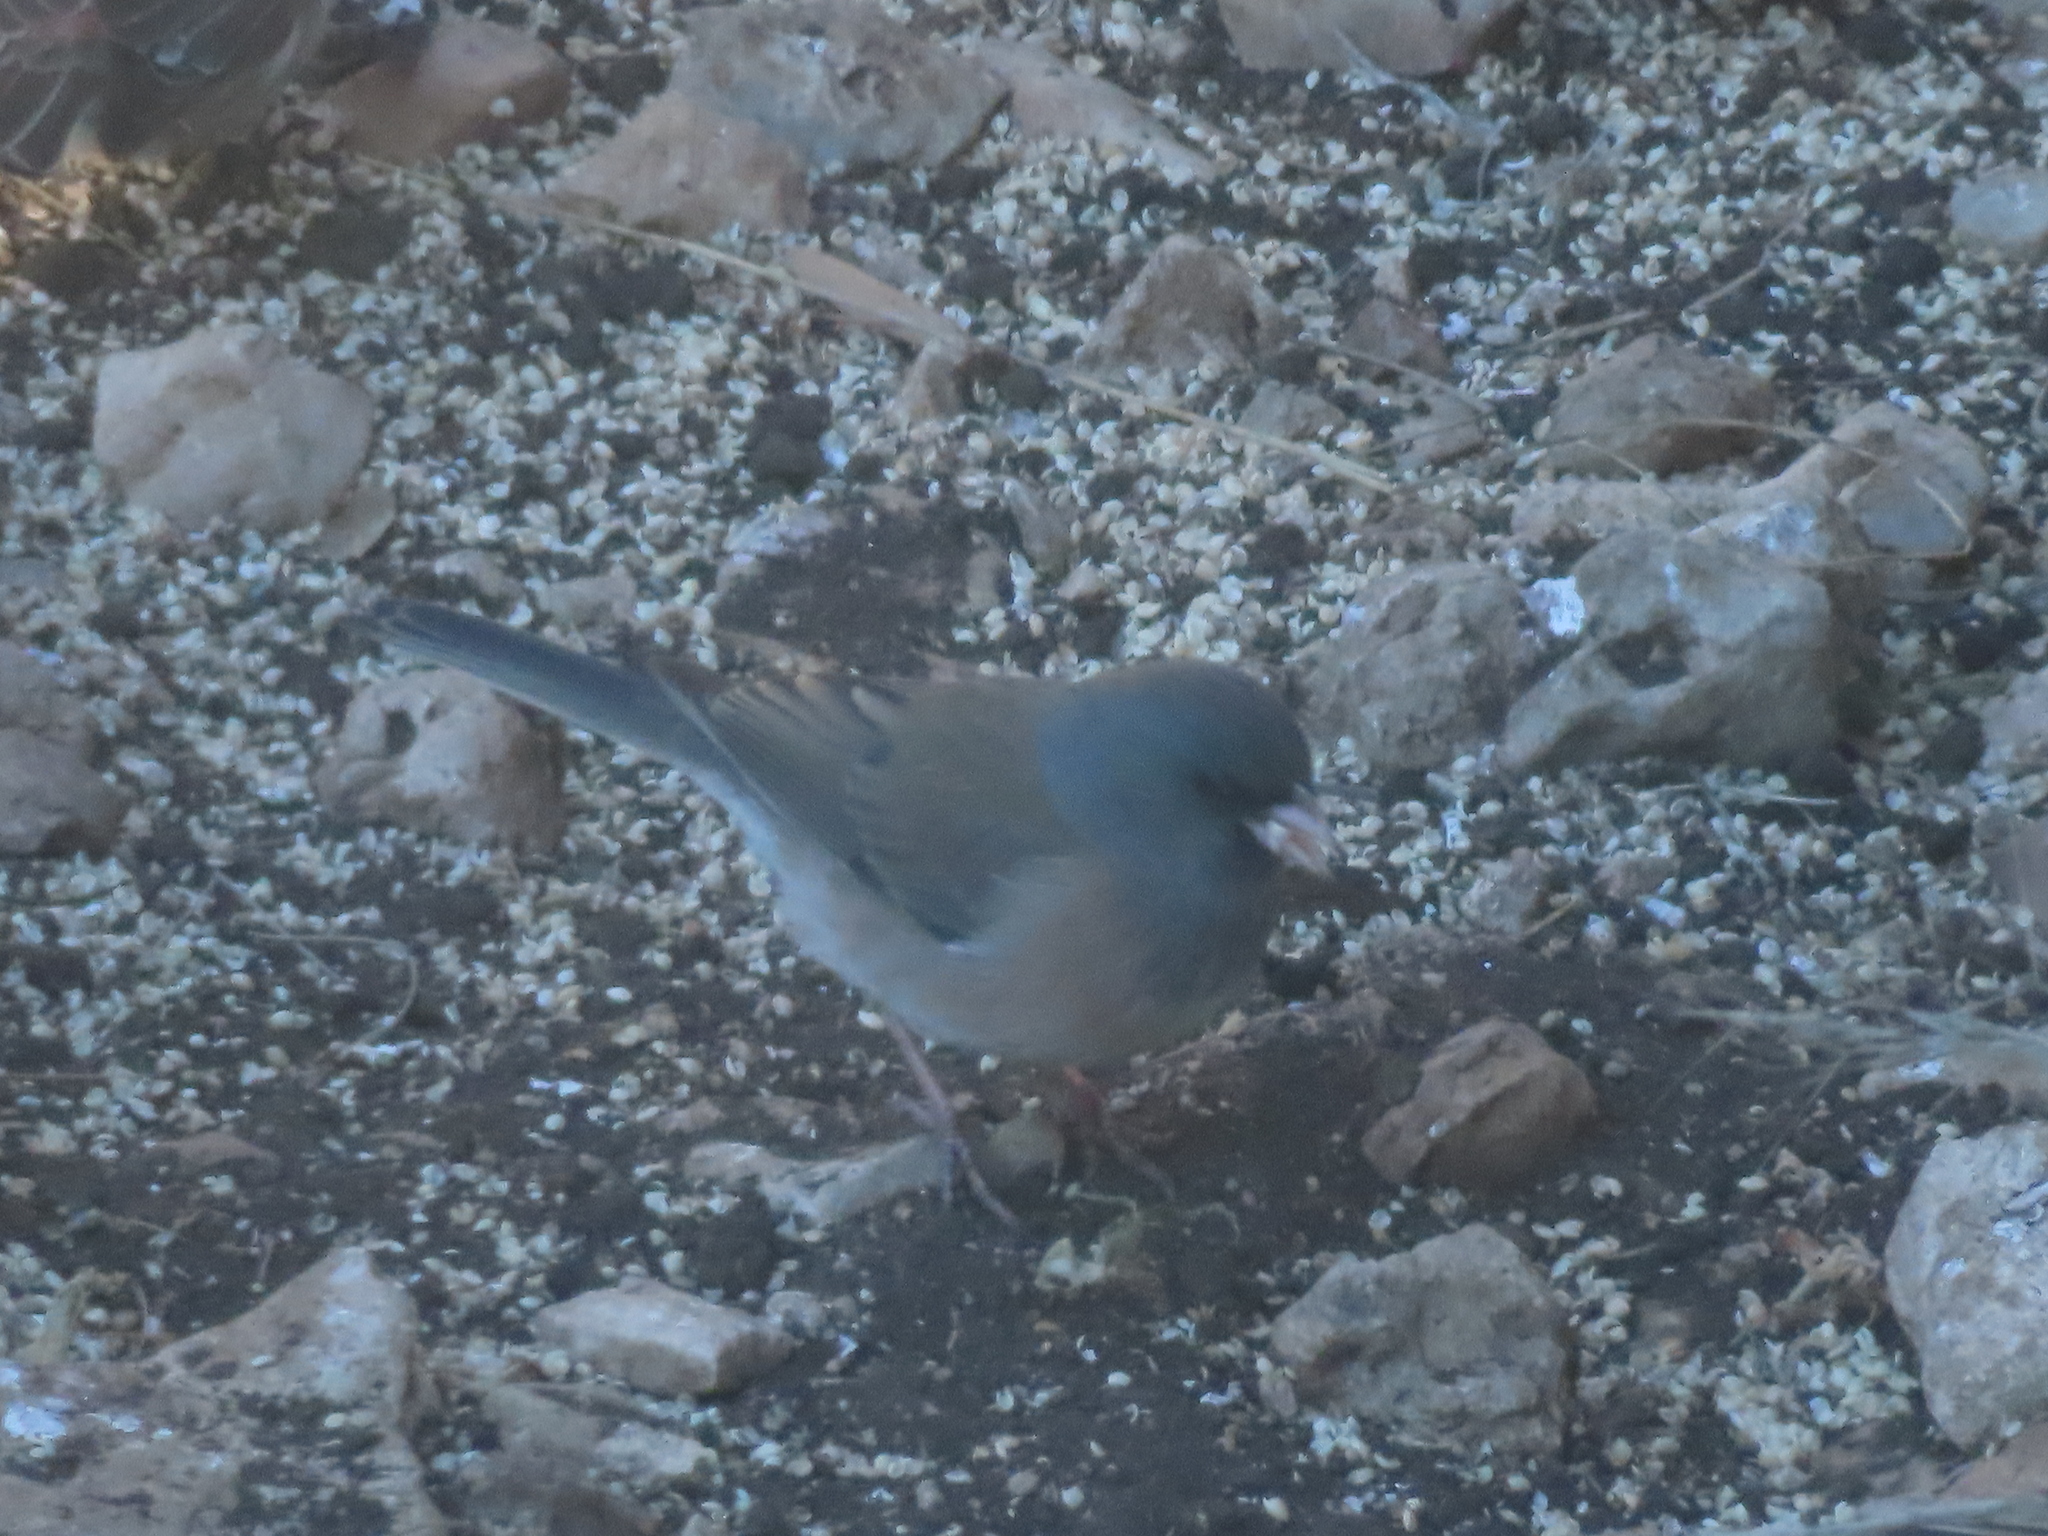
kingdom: Animalia
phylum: Chordata
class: Aves
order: Passeriformes
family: Passerellidae
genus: Junco
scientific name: Junco hyemalis
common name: Dark-eyed junco
